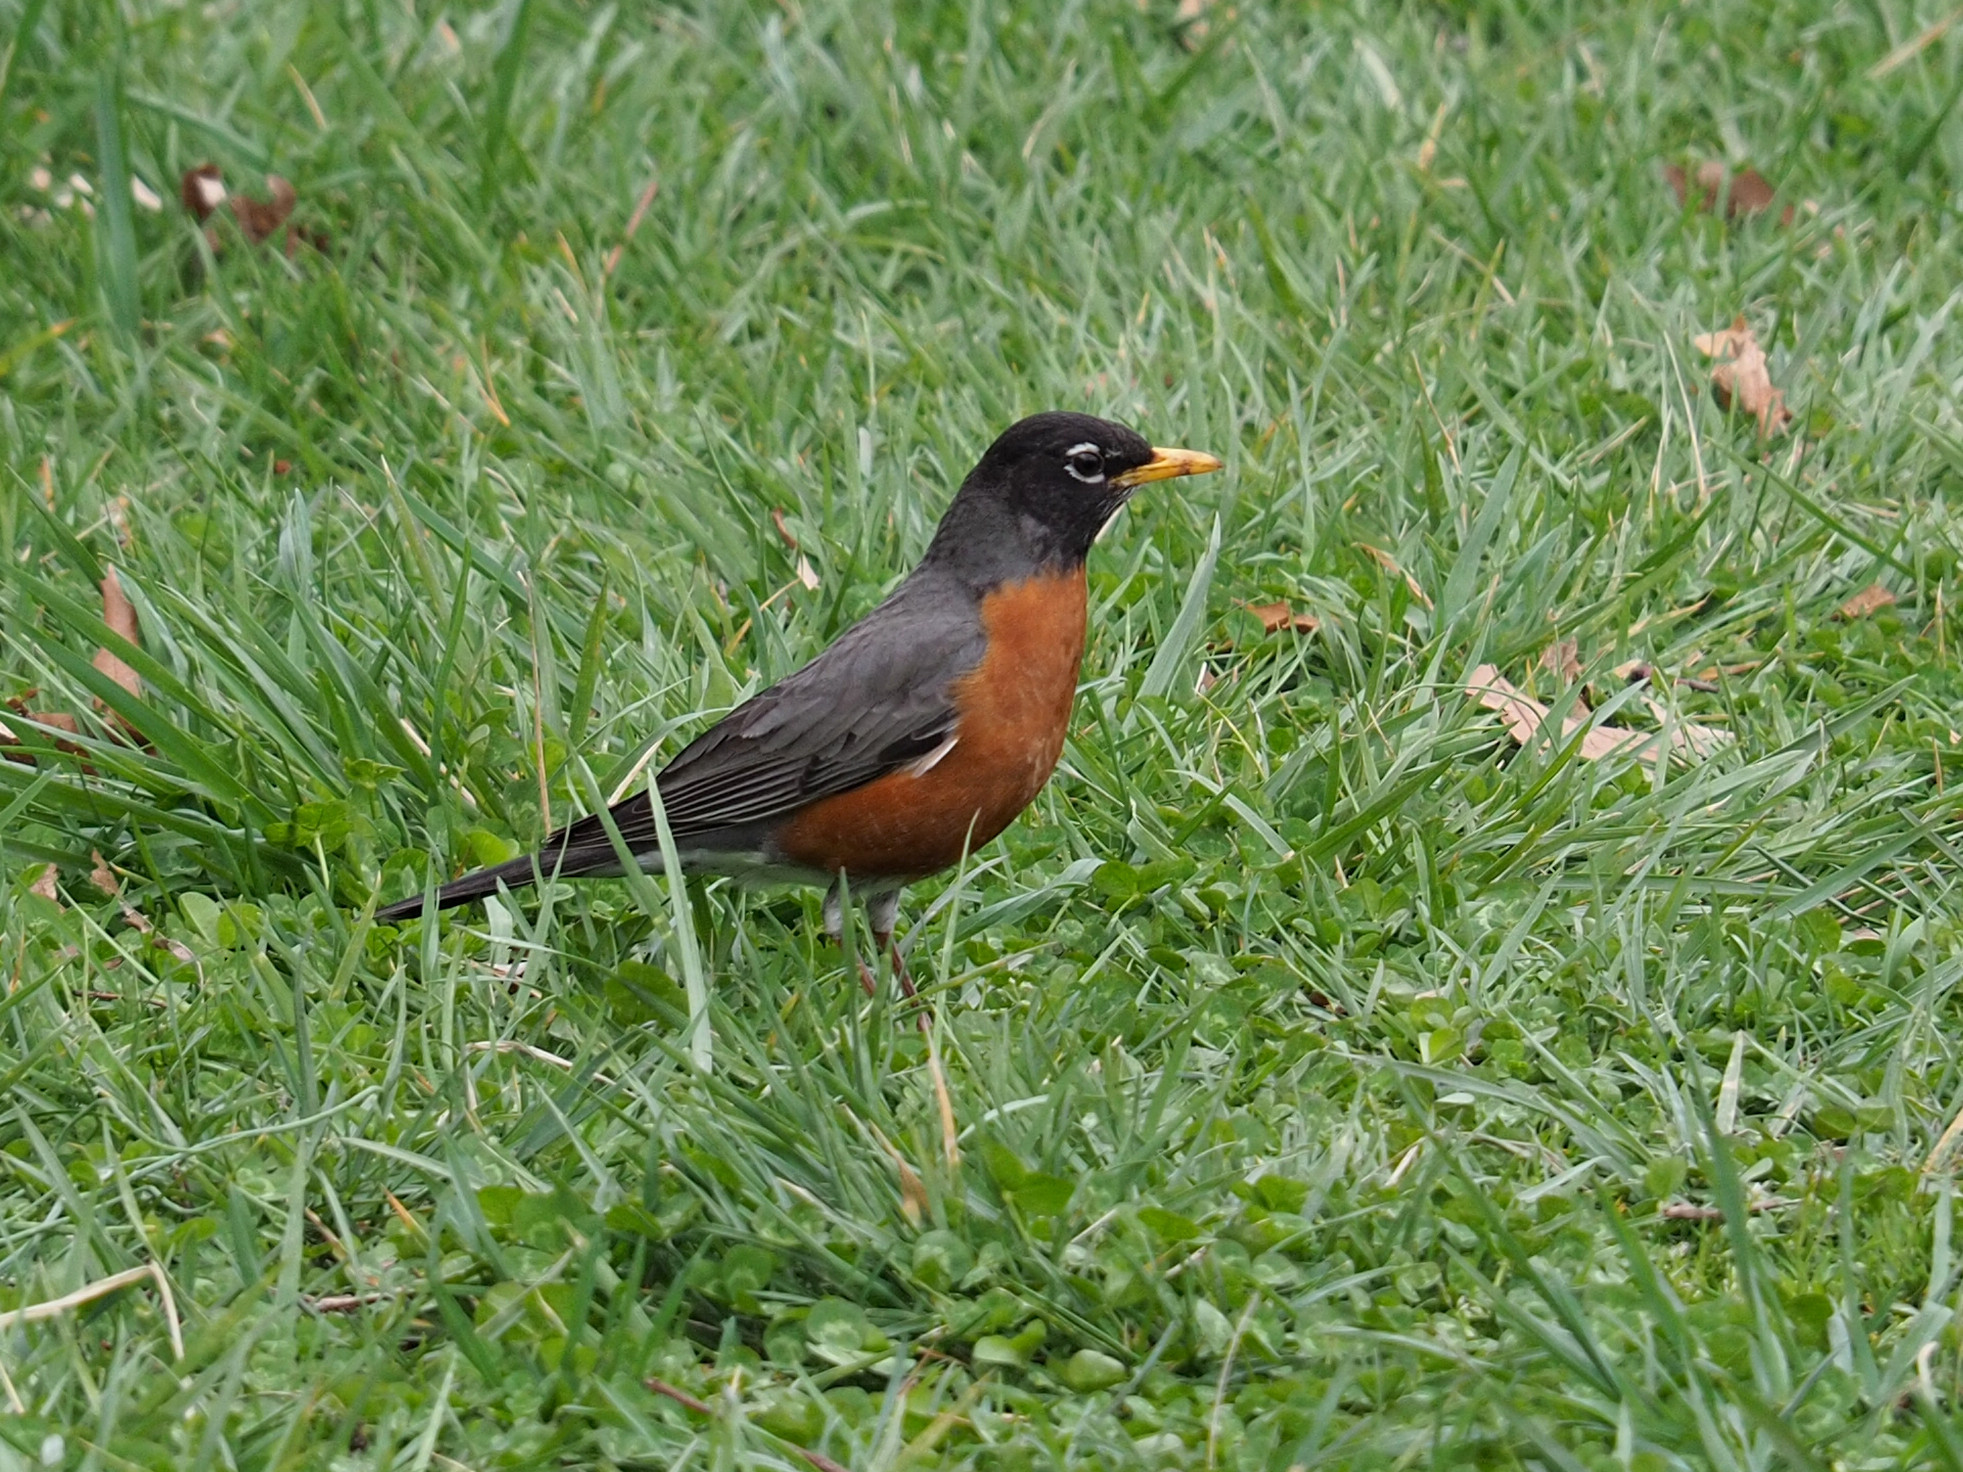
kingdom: Animalia
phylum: Chordata
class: Aves
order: Passeriformes
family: Turdidae
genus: Turdus
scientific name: Turdus migratorius
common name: American robin
